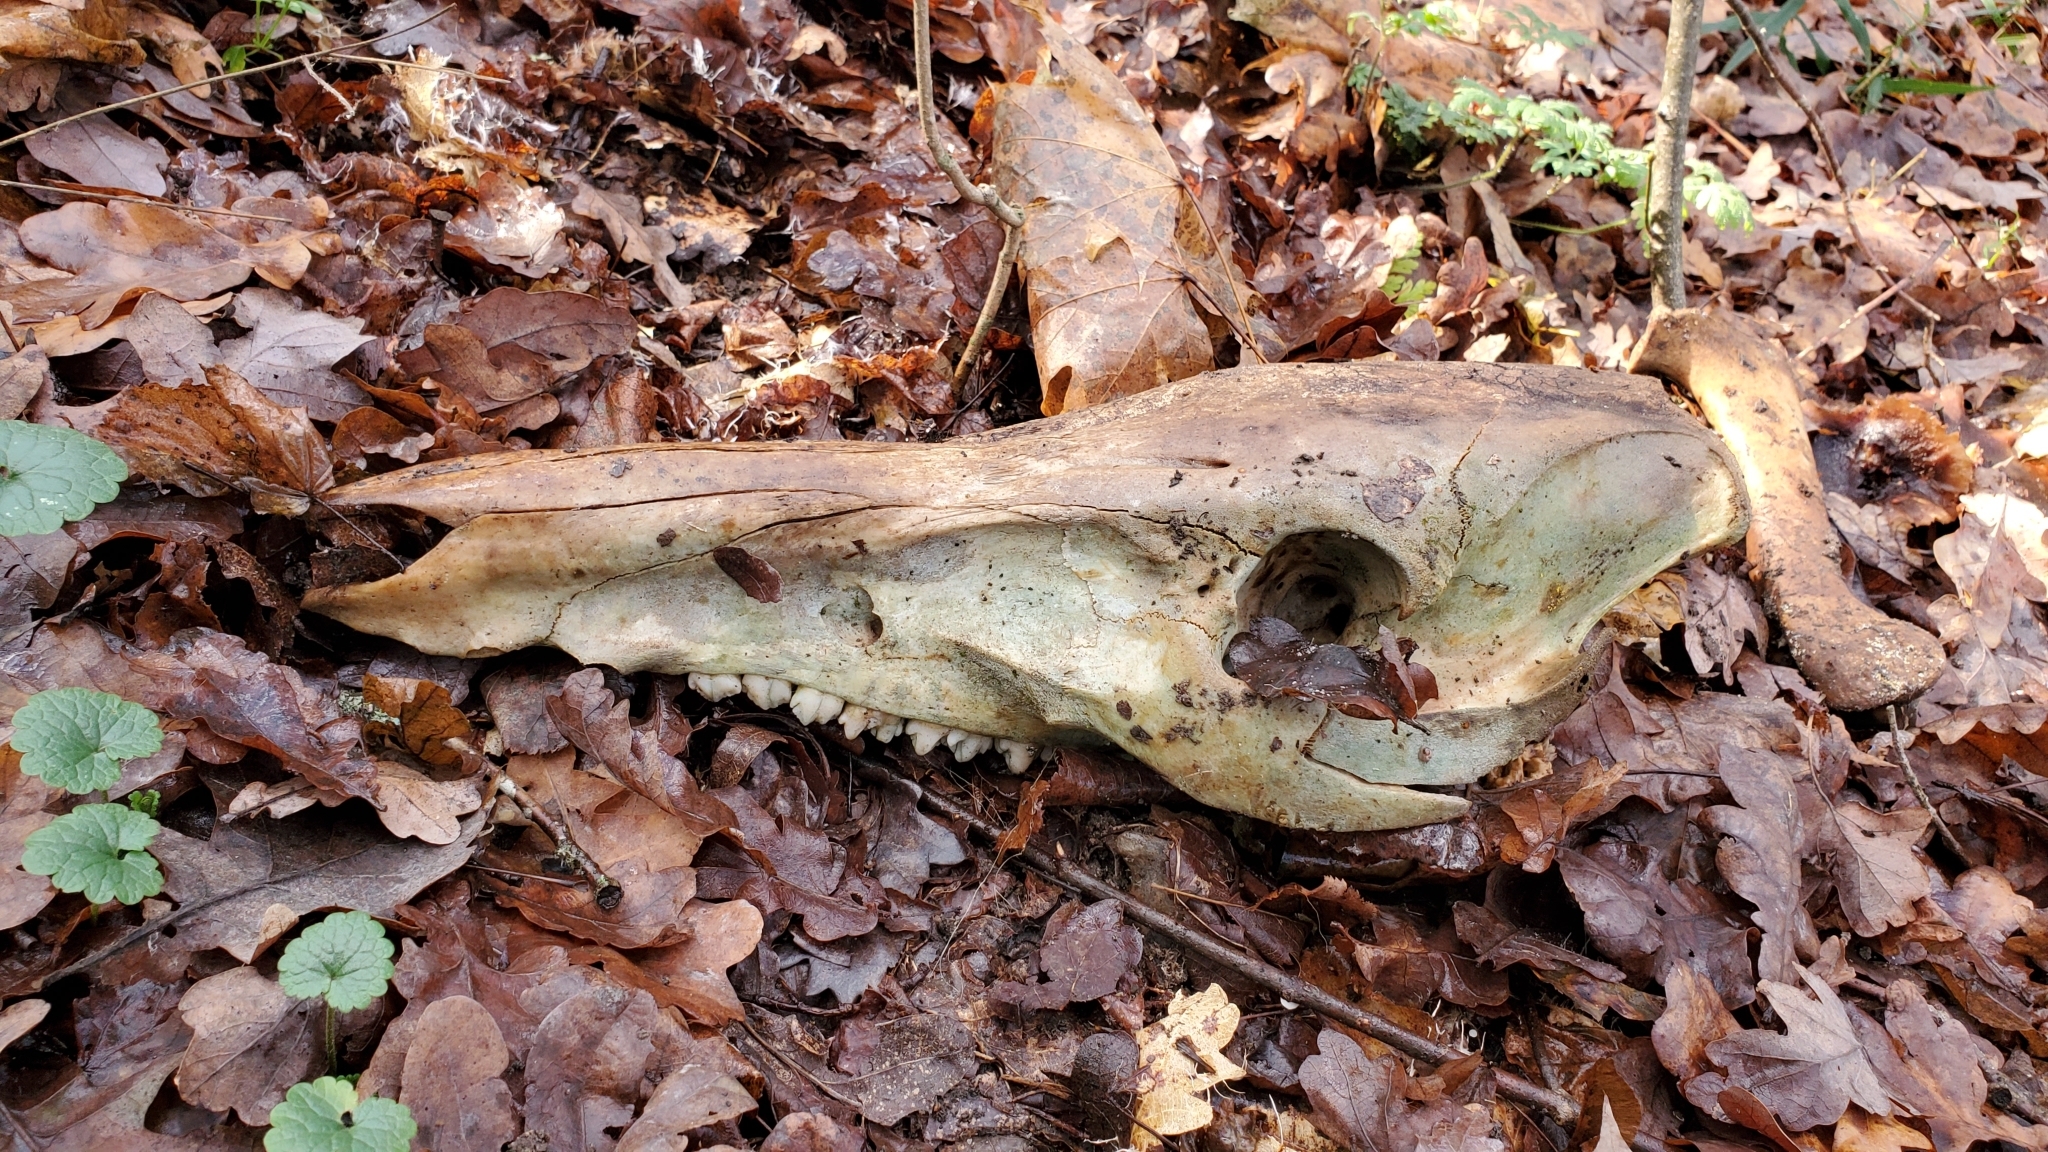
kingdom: Animalia
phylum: Chordata
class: Mammalia
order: Artiodactyla
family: Suidae
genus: Sus
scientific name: Sus scrofa
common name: Wild boar
